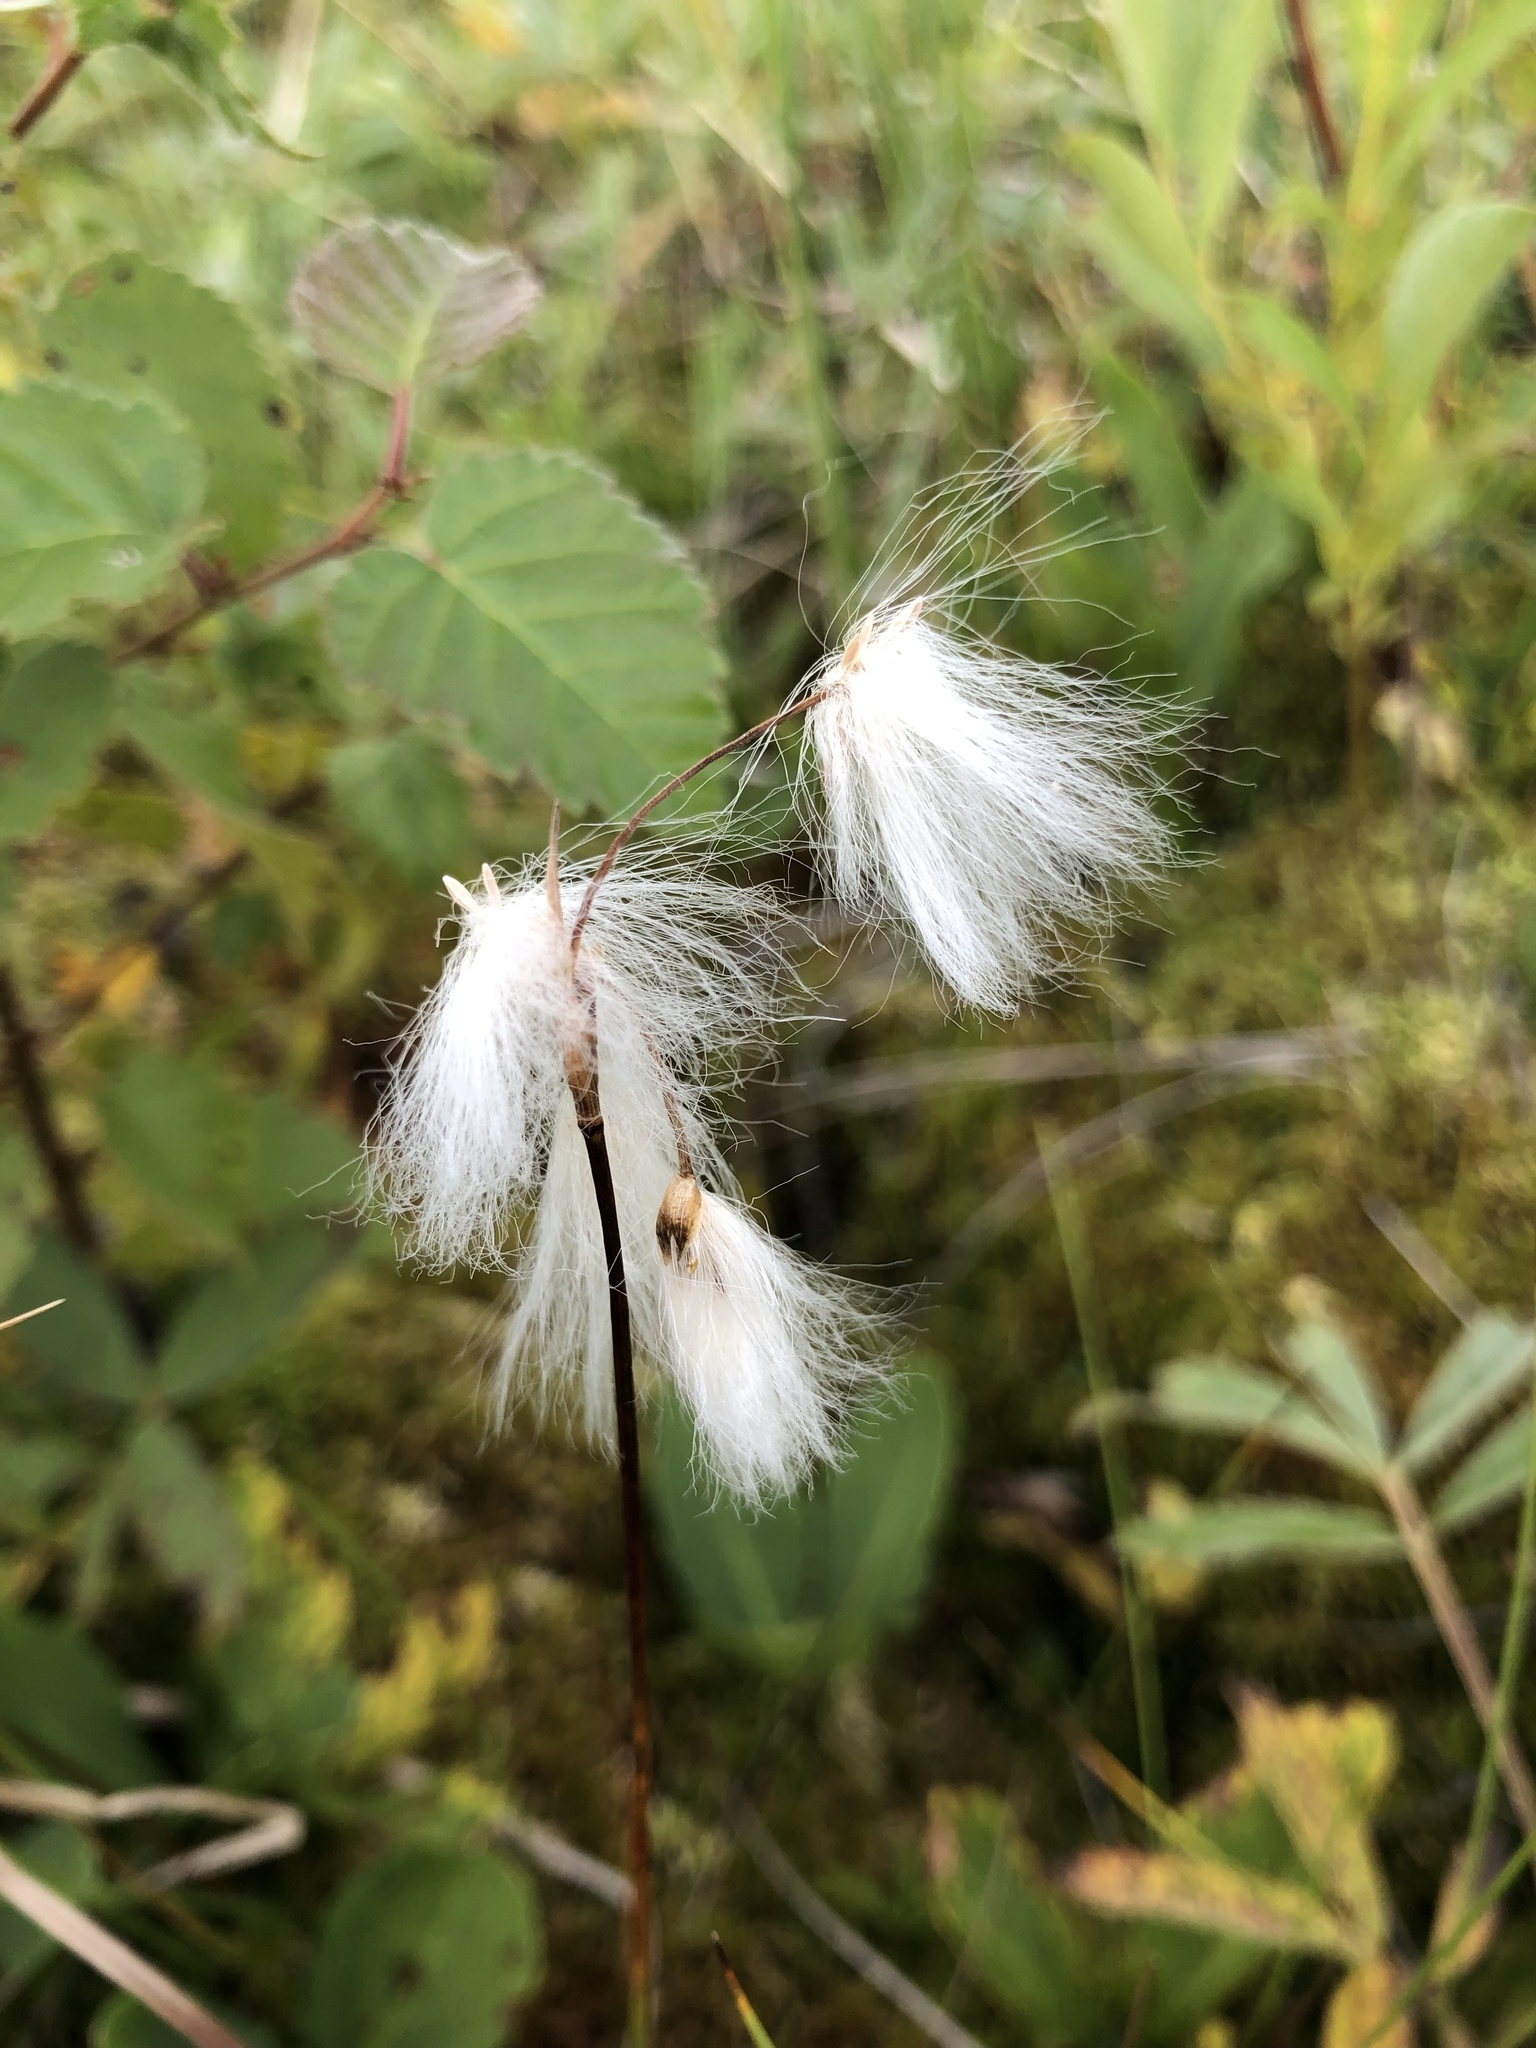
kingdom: Plantae
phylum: Tracheophyta
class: Liliopsida
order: Poales
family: Cyperaceae
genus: Eriophorum
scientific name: Eriophorum gracile
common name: Slender cottongrass
